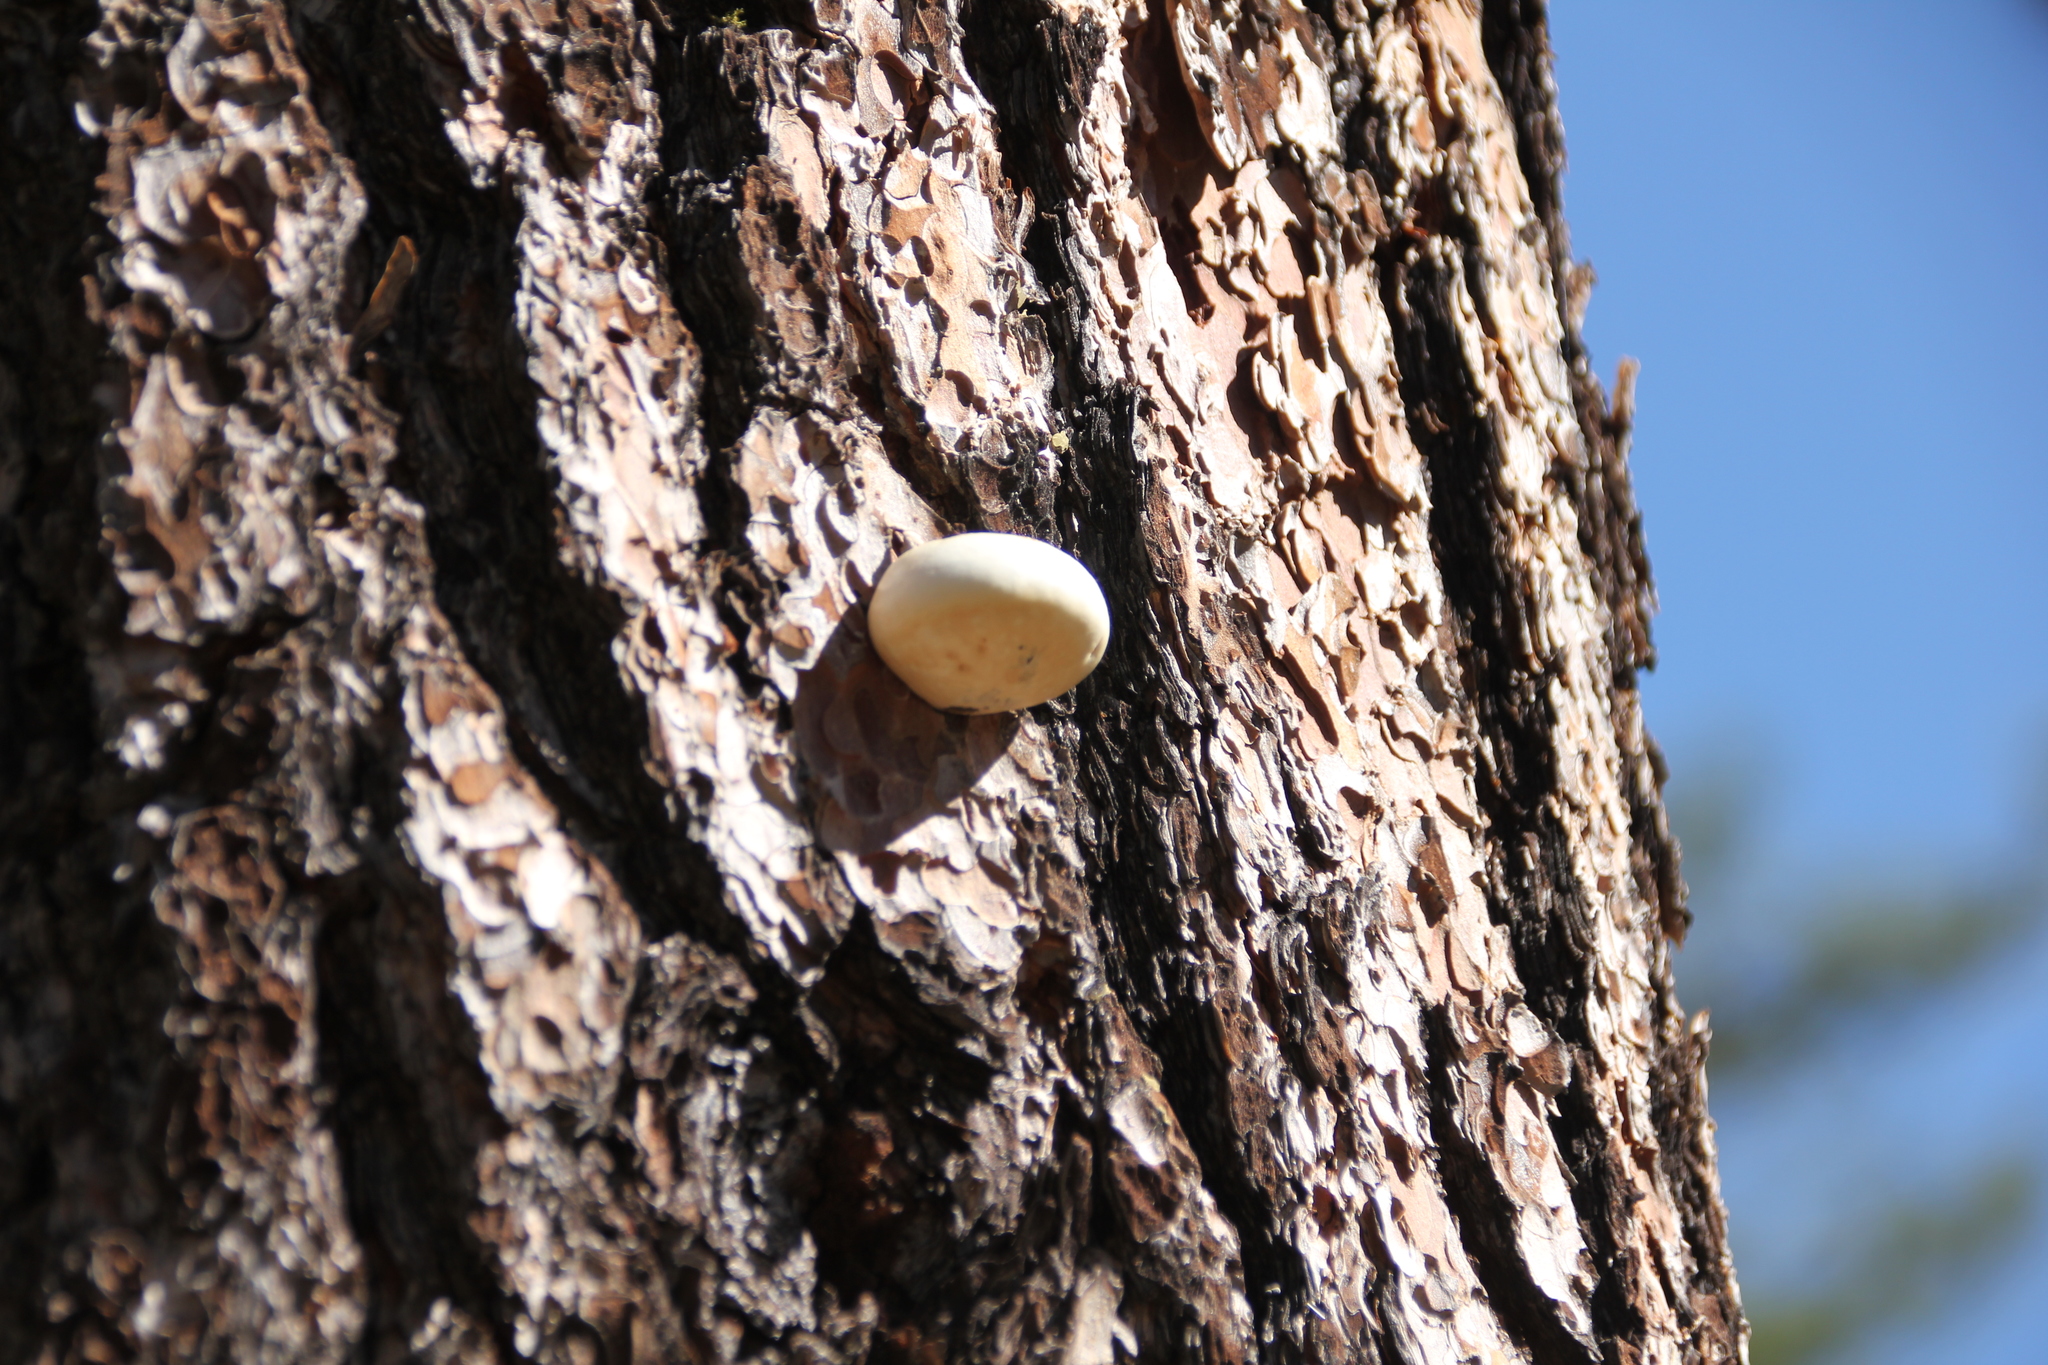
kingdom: Fungi
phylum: Basidiomycota
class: Agaricomycetes
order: Polyporales
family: Polyporaceae
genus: Cryptoporus
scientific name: Cryptoporus volvatus
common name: Veiled polypore
